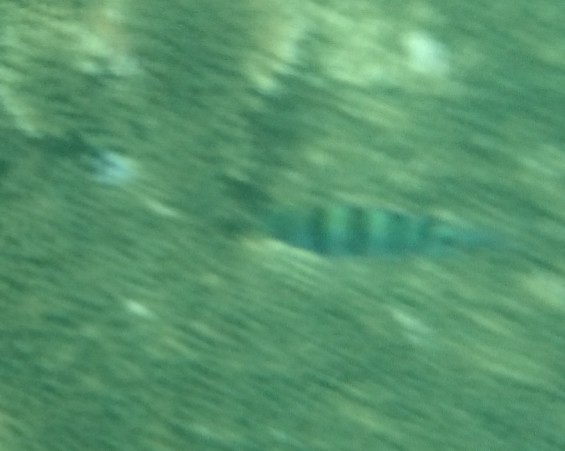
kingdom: Animalia
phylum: Chordata
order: Perciformes
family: Pomacentridae
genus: Abudefduf
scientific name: Abudefduf vaigiensis
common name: Indo-pacific sergeant
